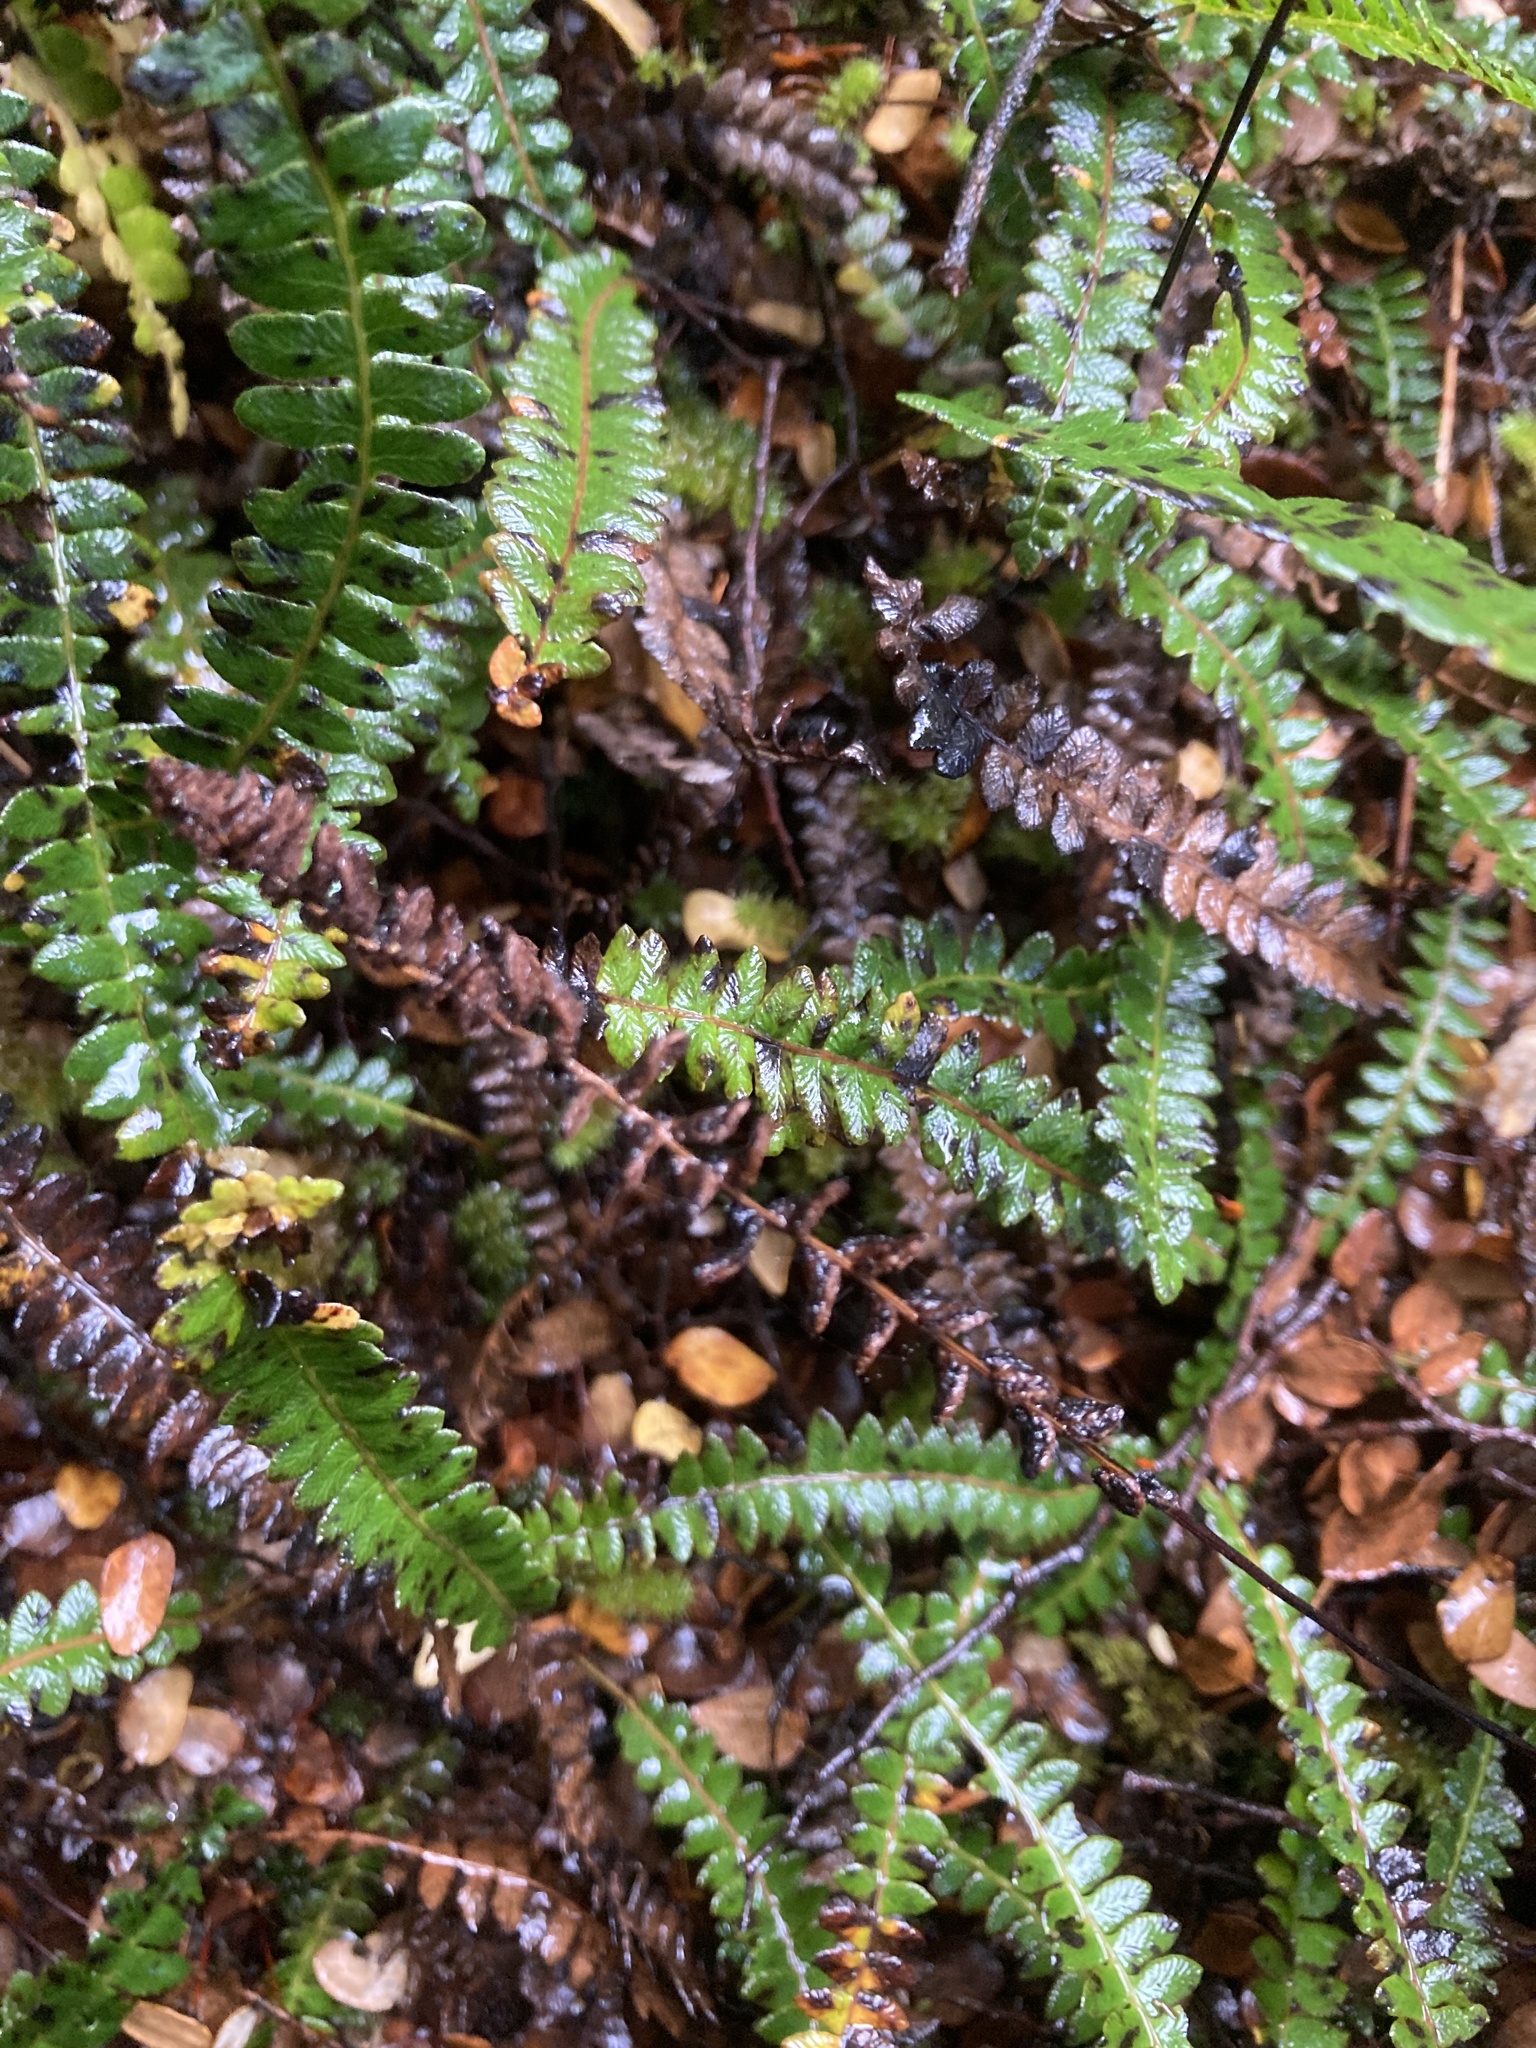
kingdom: Plantae
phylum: Tracheophyta
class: Polypodiopsida
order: Polypodiales
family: Blechnaceae
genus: Austroblechnum
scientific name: Austroblechnum penna-marina
